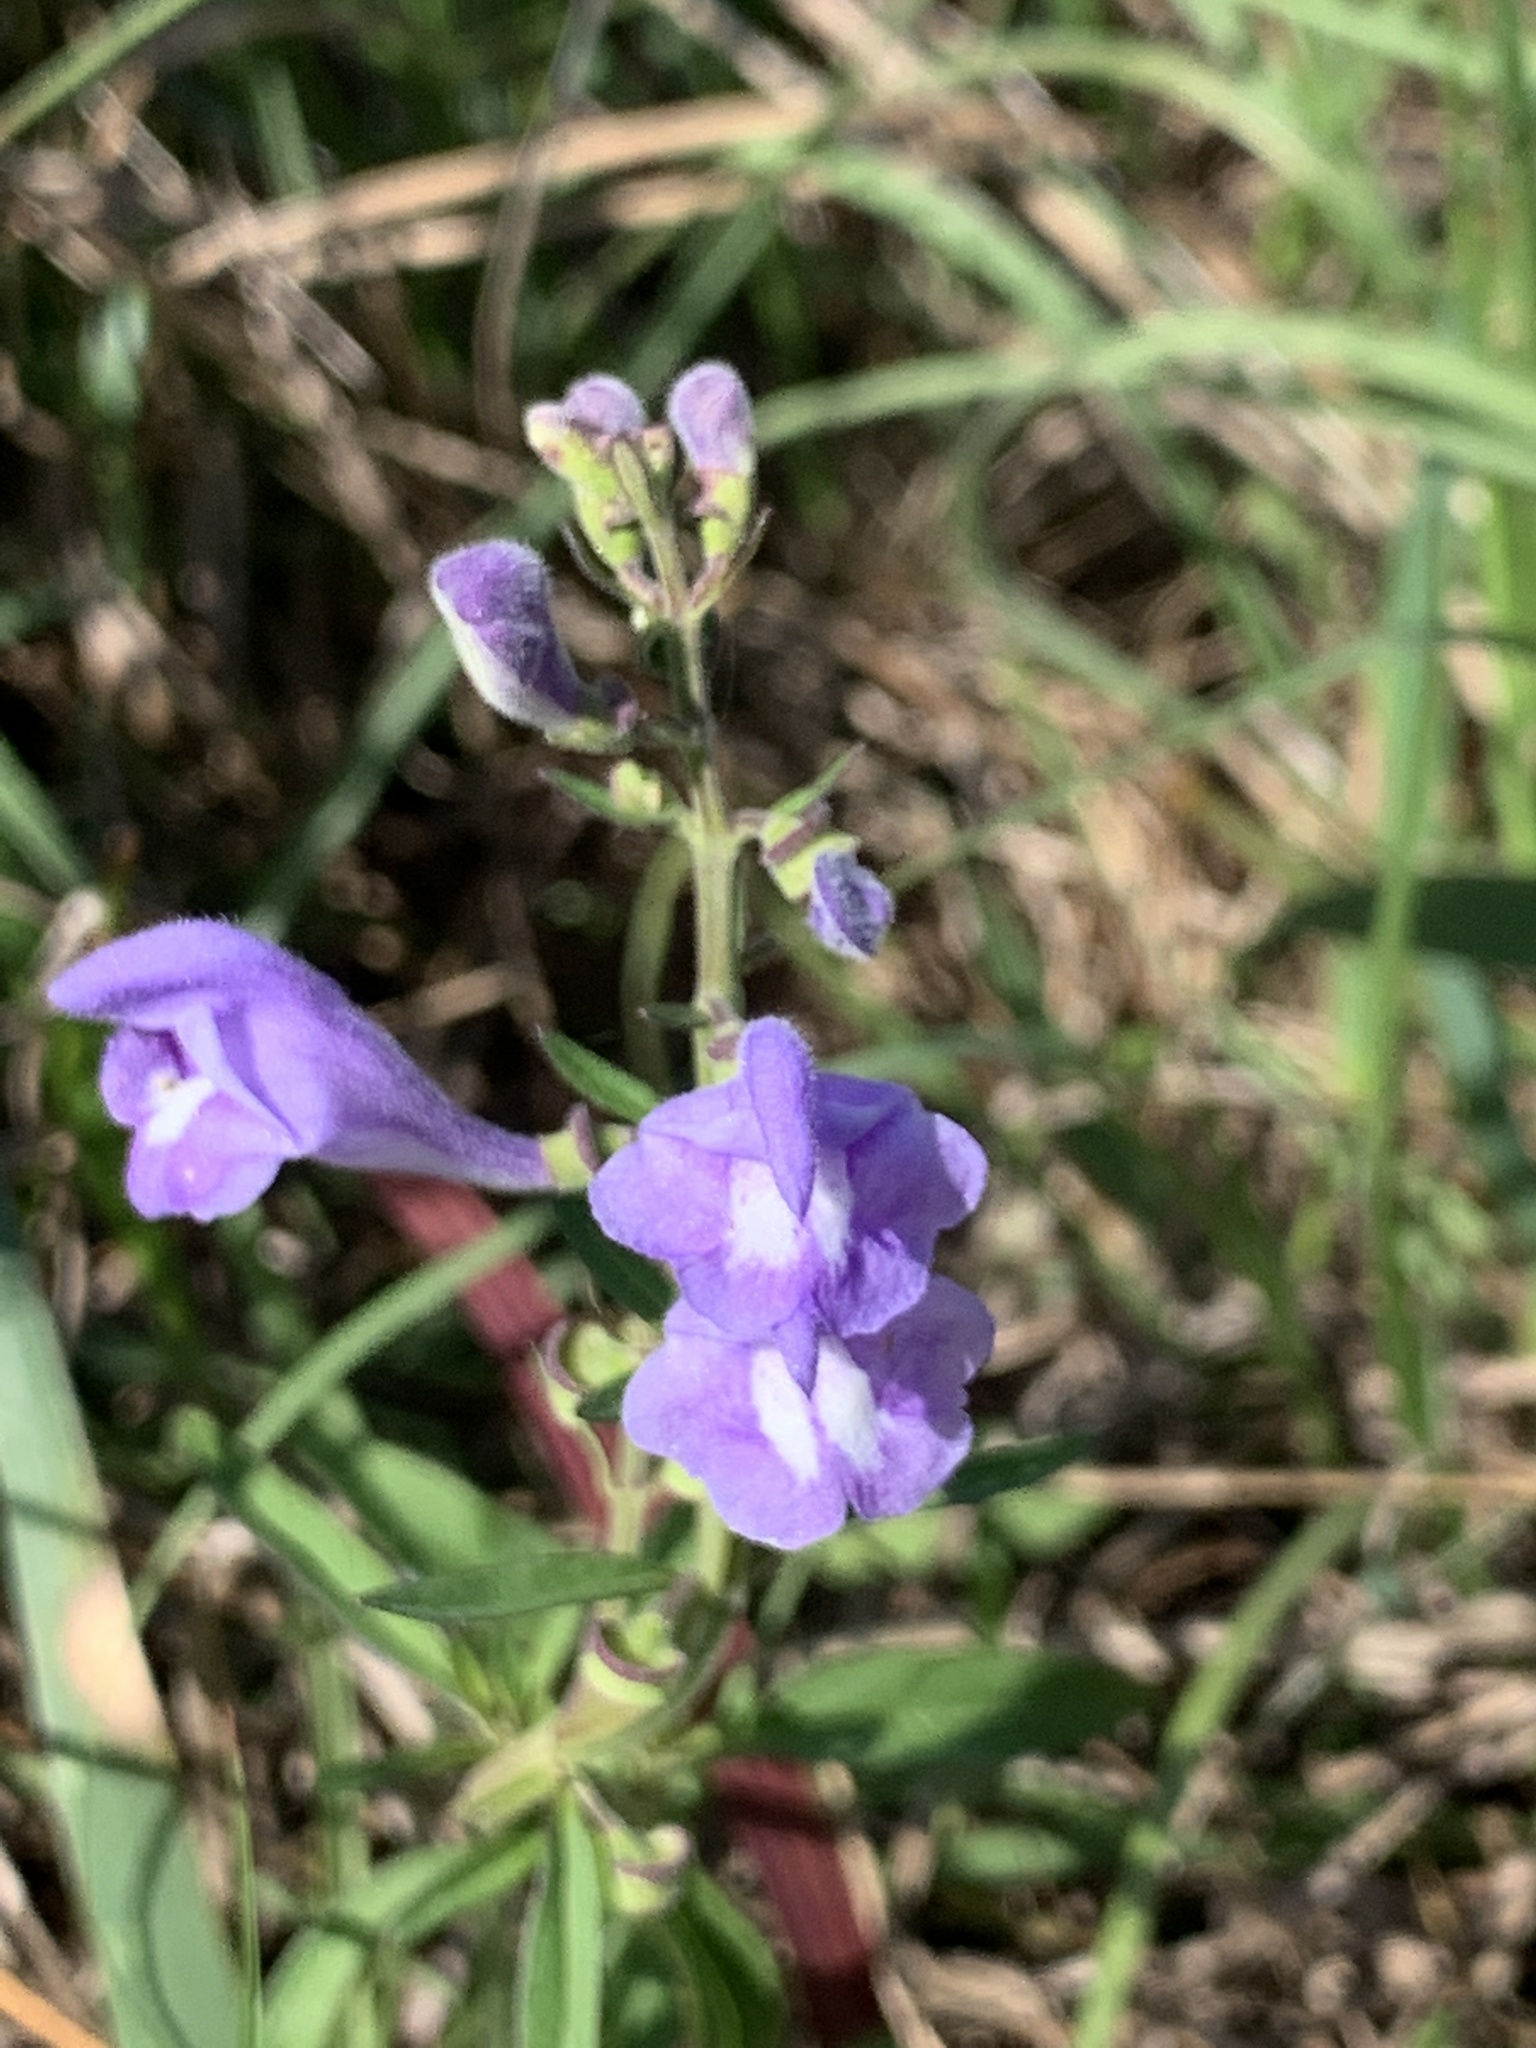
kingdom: Plantae
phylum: Tracheophyta
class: Magnoliopsida
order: Lamiales
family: Lamiaceae
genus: Scutellaria
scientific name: Scutellaria integrifolia
